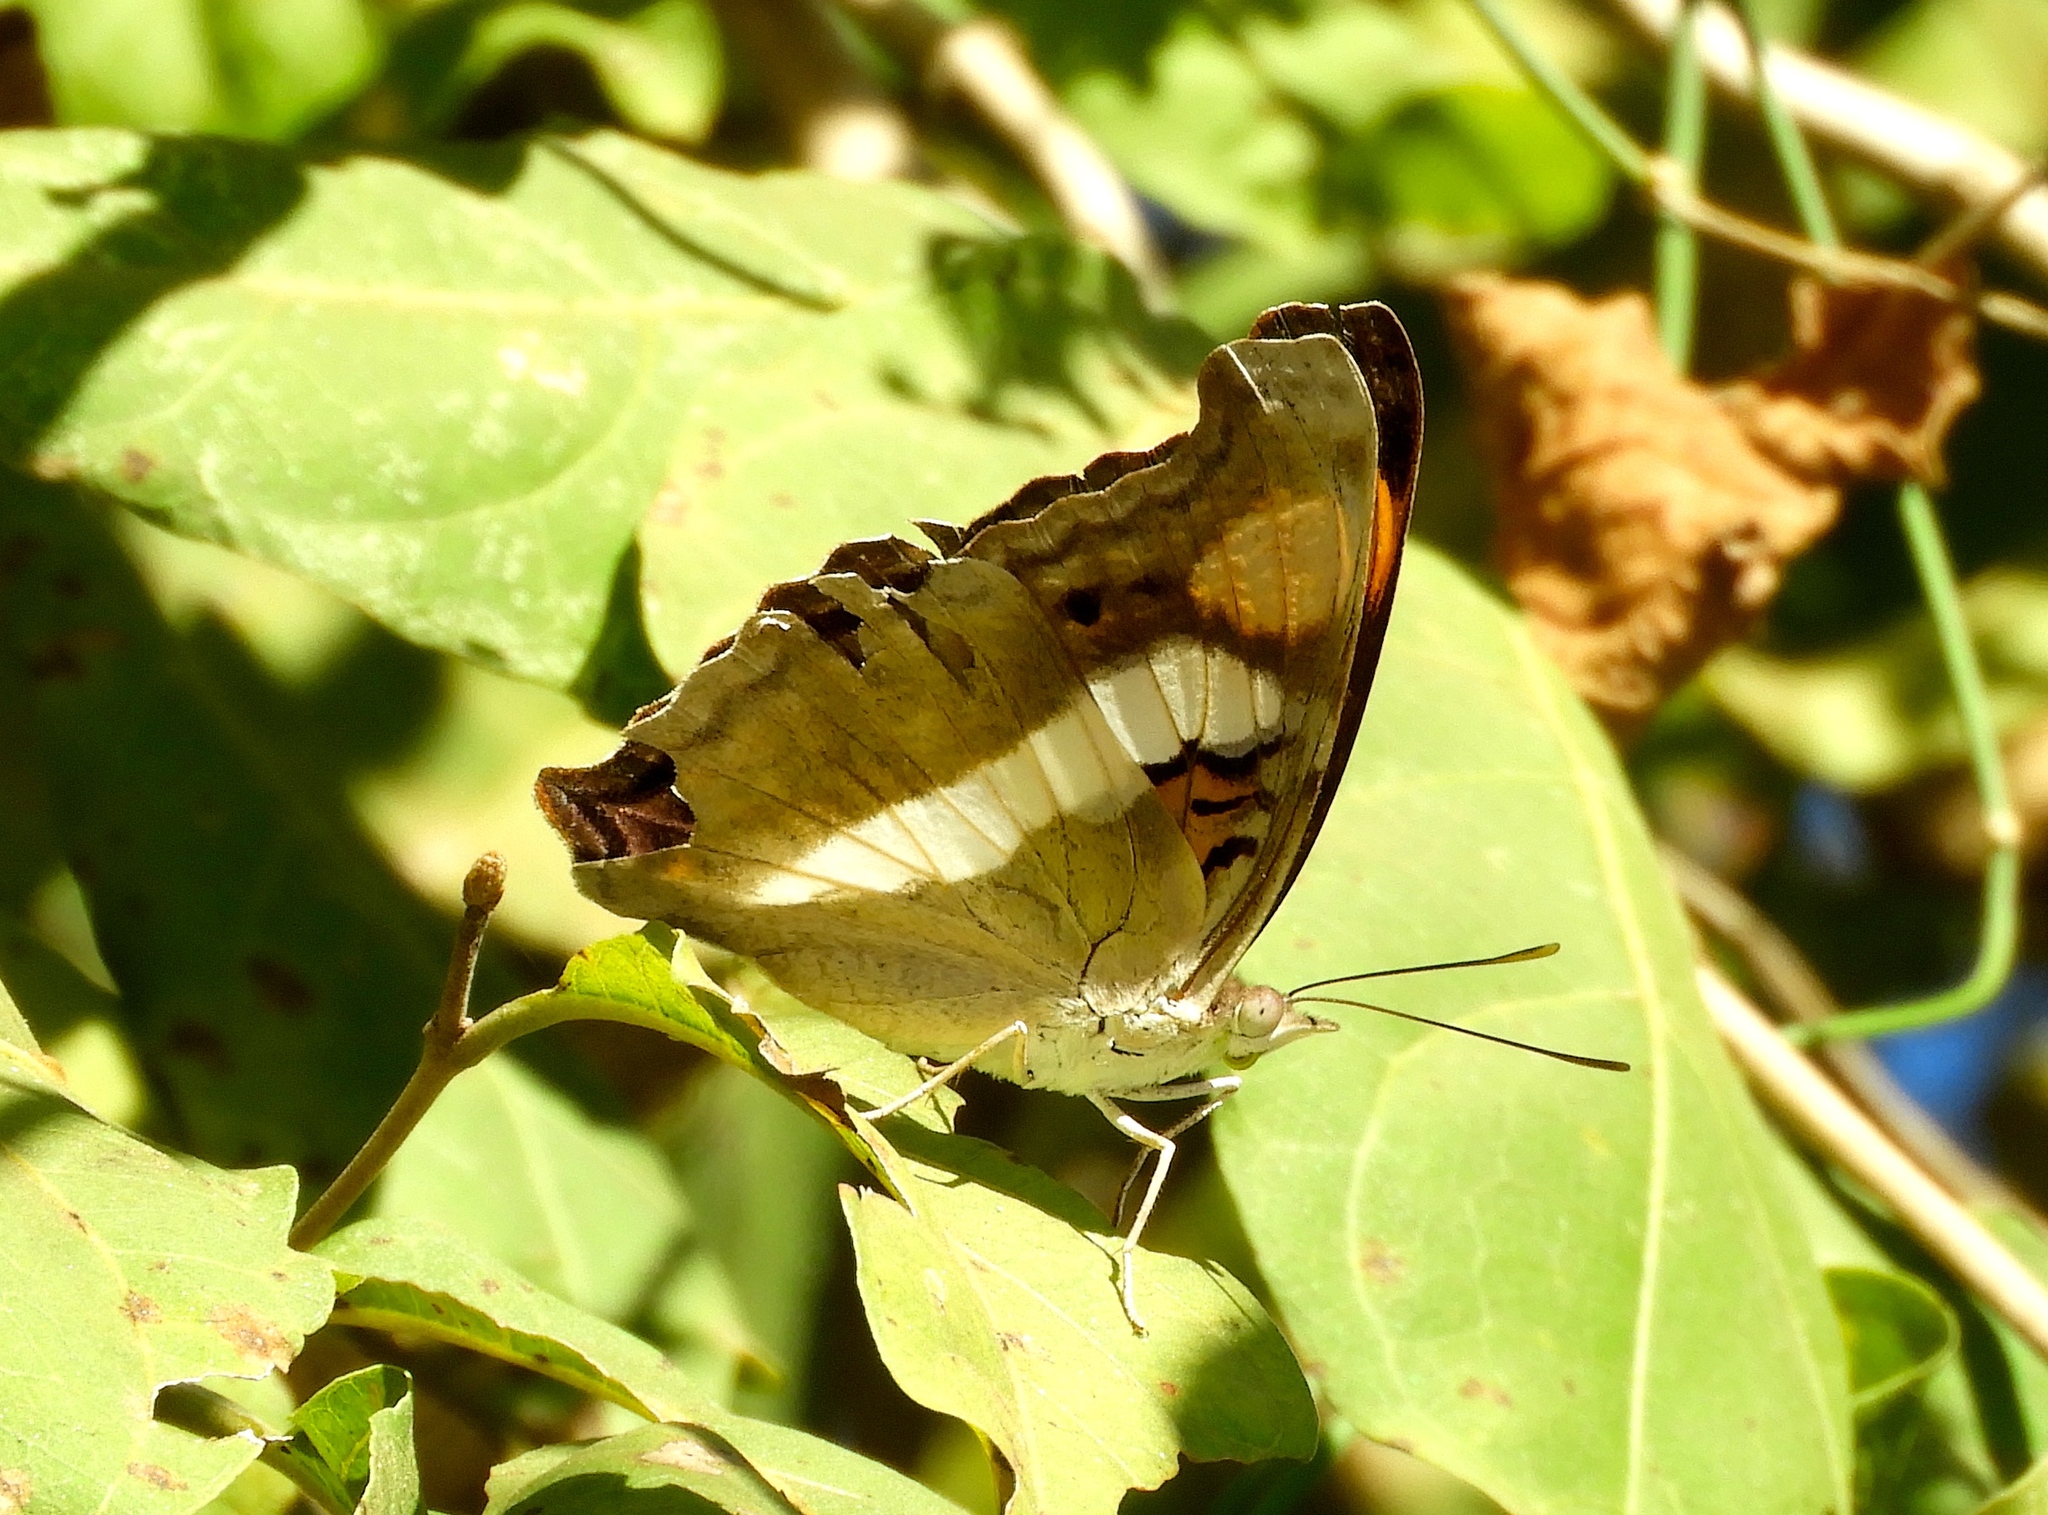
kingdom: Animalia
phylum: Arthropoda
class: Insecta
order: Lepidoptera
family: Nymphalidae
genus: Doxocopa
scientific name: Doxocopa laure
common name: Silver emperor
